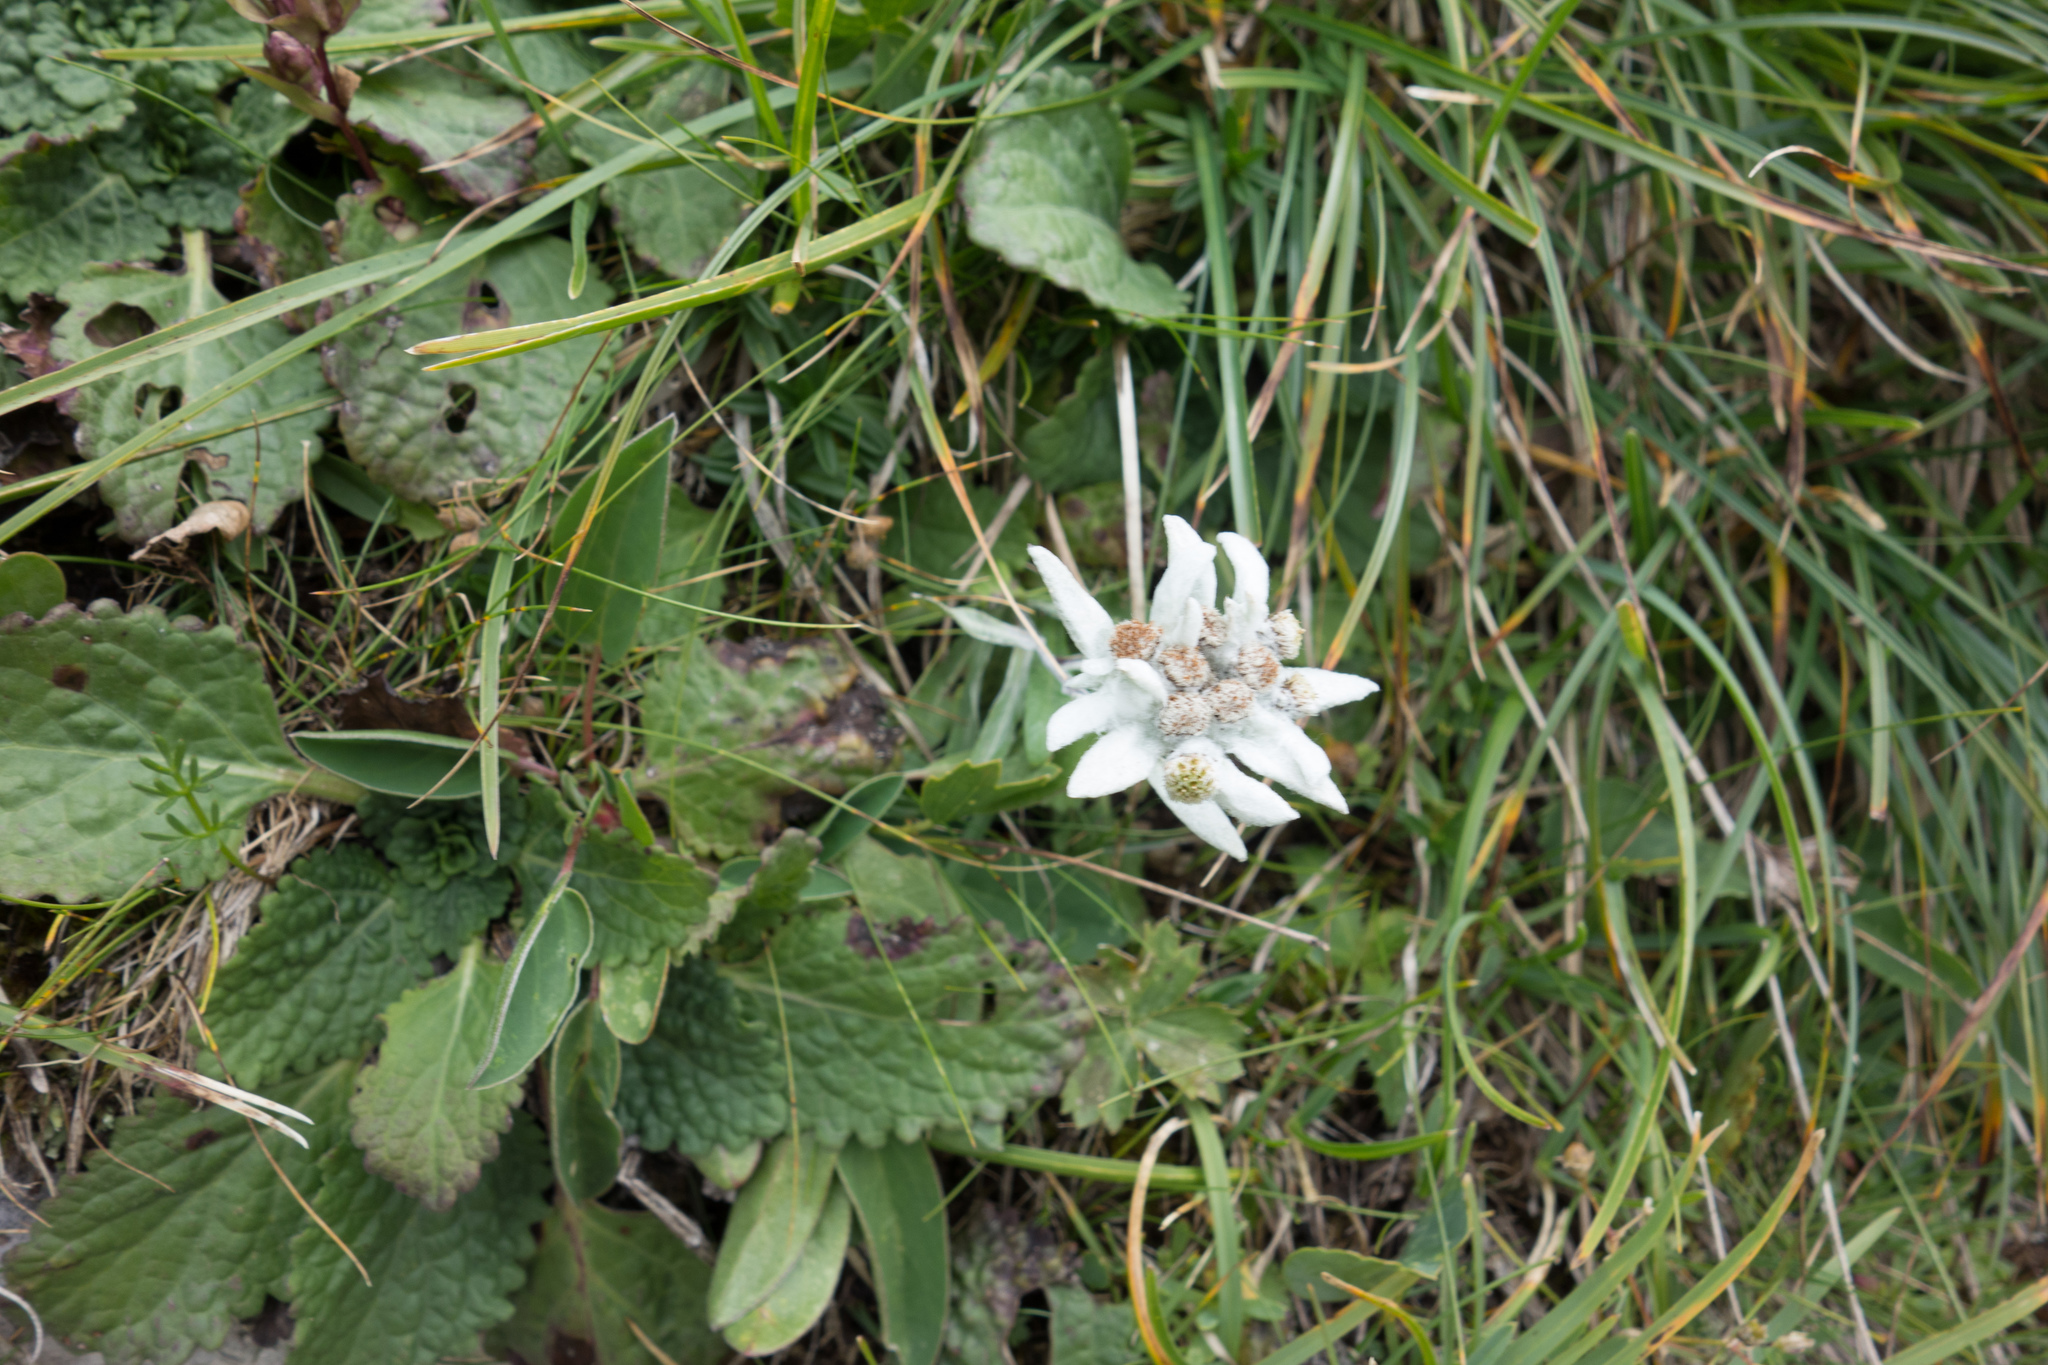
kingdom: Plantae
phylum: Tracheophyta
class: Magnoliopsida
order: Asterales
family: Asteraceae
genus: Leontopodium
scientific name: Leontopodium nivale
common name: Edelweiss
